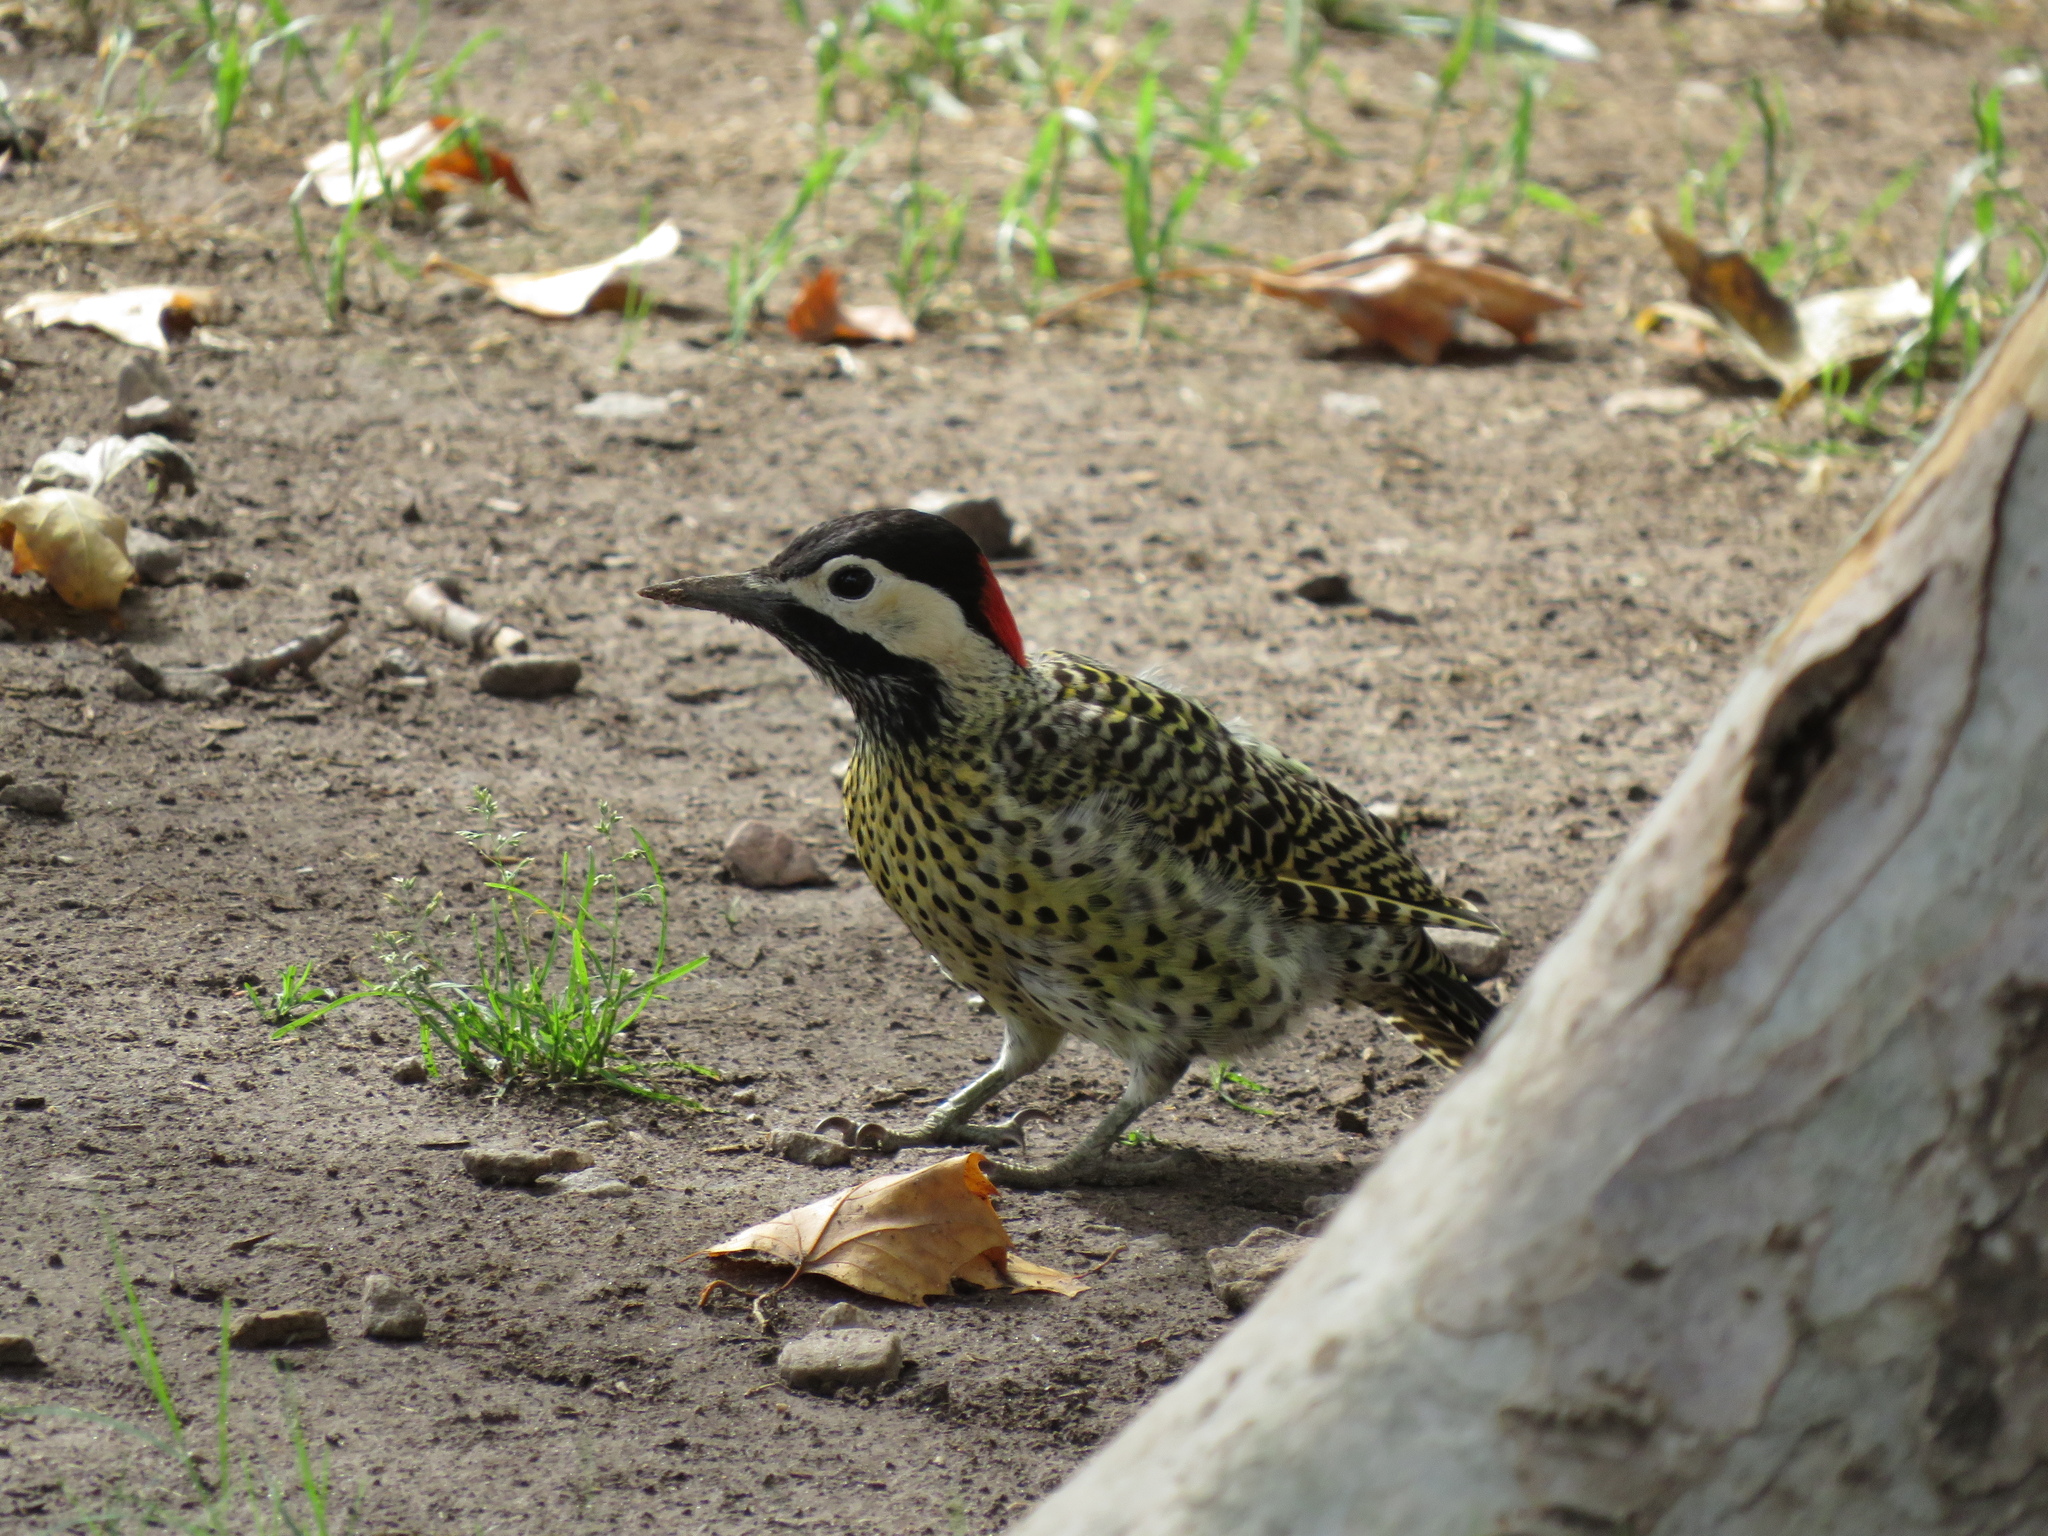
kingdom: Animalia
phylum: Chordata
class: Aves
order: Piciformes
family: Picidae
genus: Colaptes
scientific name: Colaptes melanochloros
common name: Green-barred woodpecker
